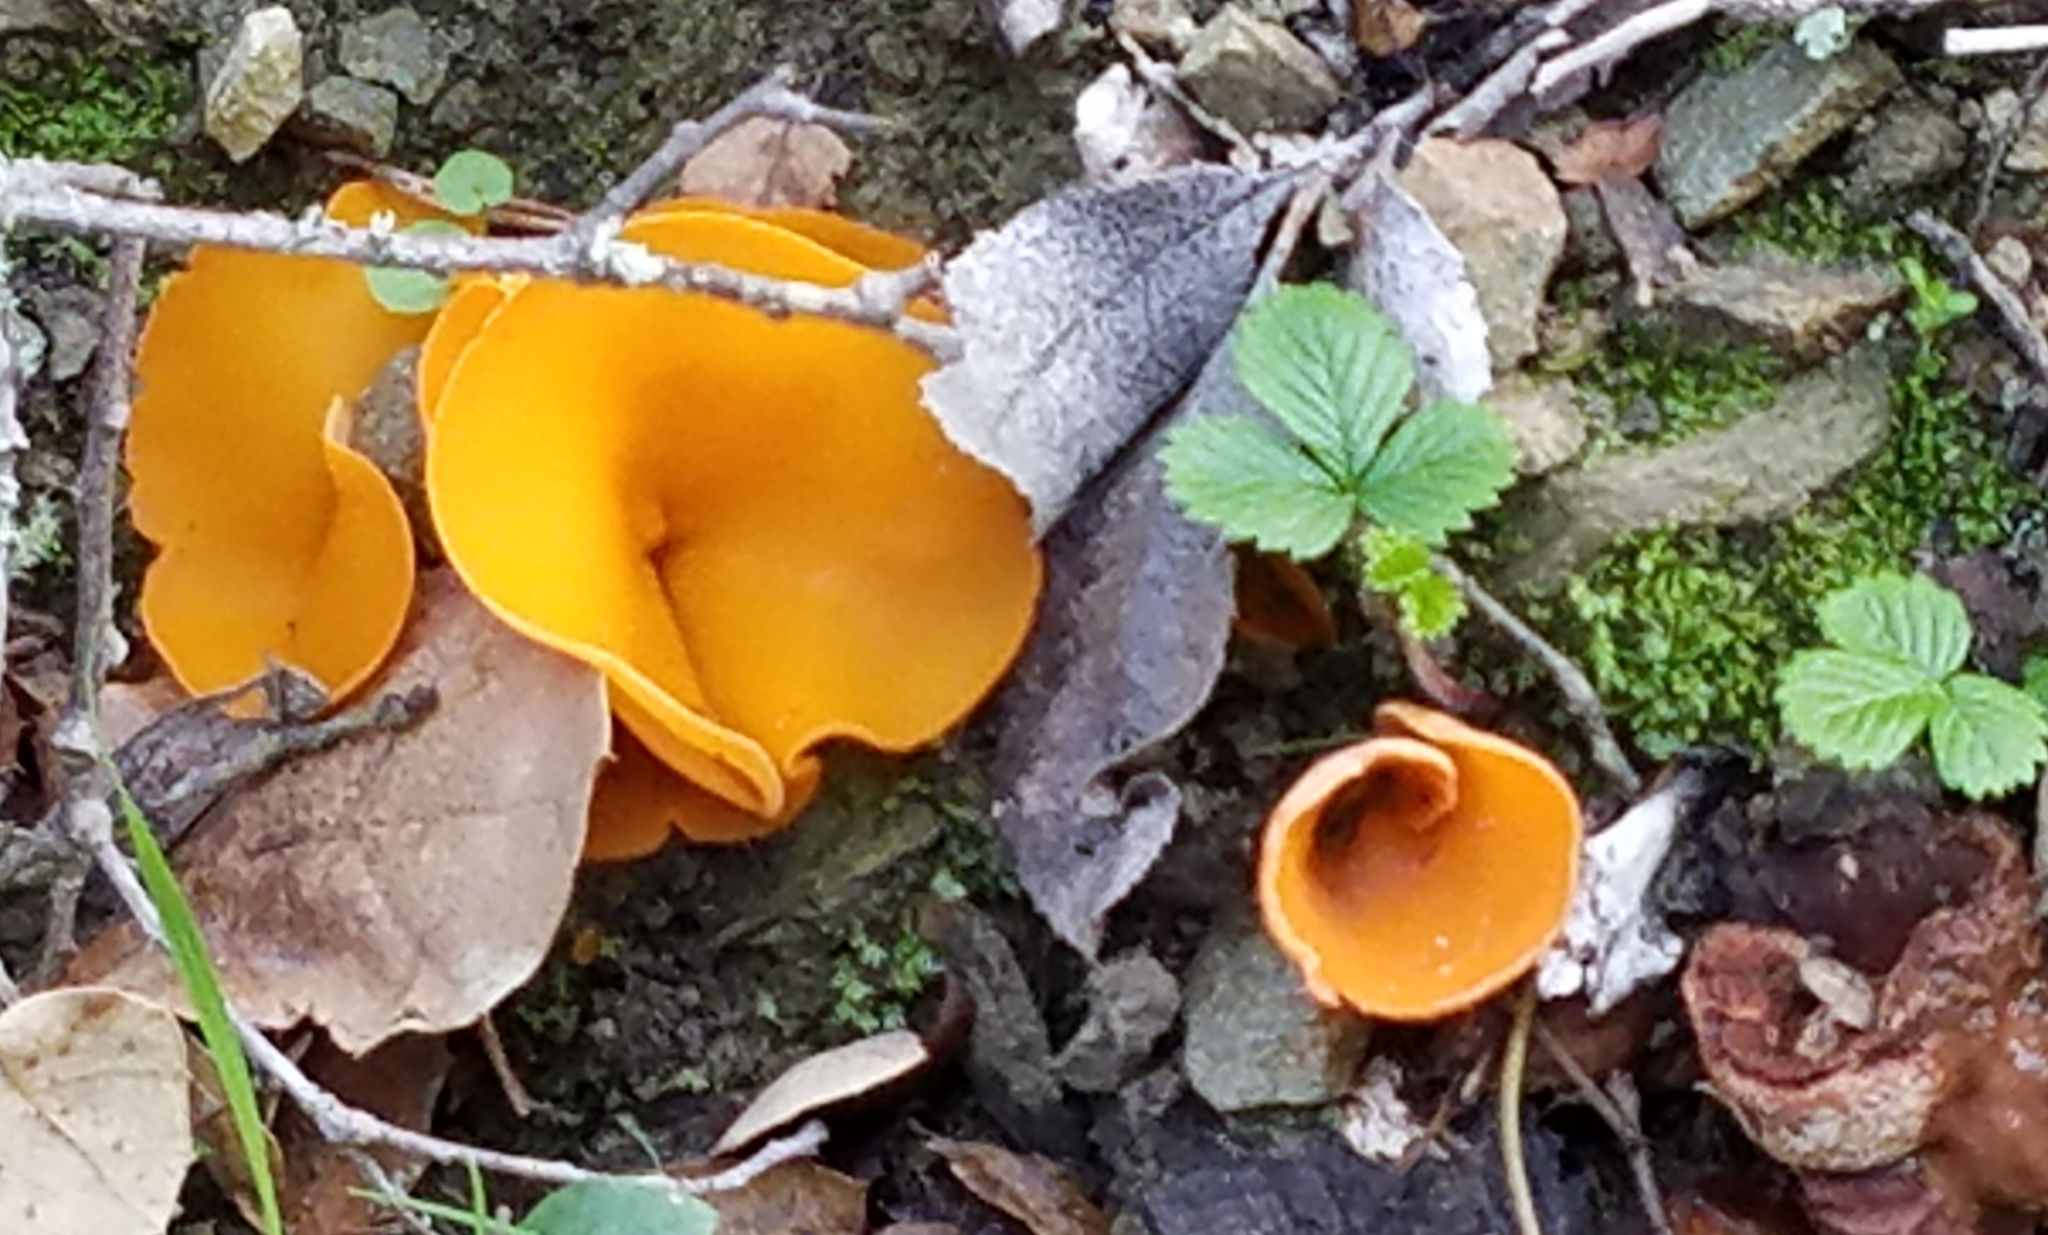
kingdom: Fungi
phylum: Ascomycota
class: Pezizomycetes
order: Pezizales
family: Pyronemataceae
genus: Aleuria
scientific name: Aleuria aurantia
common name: Orange peel fungus
